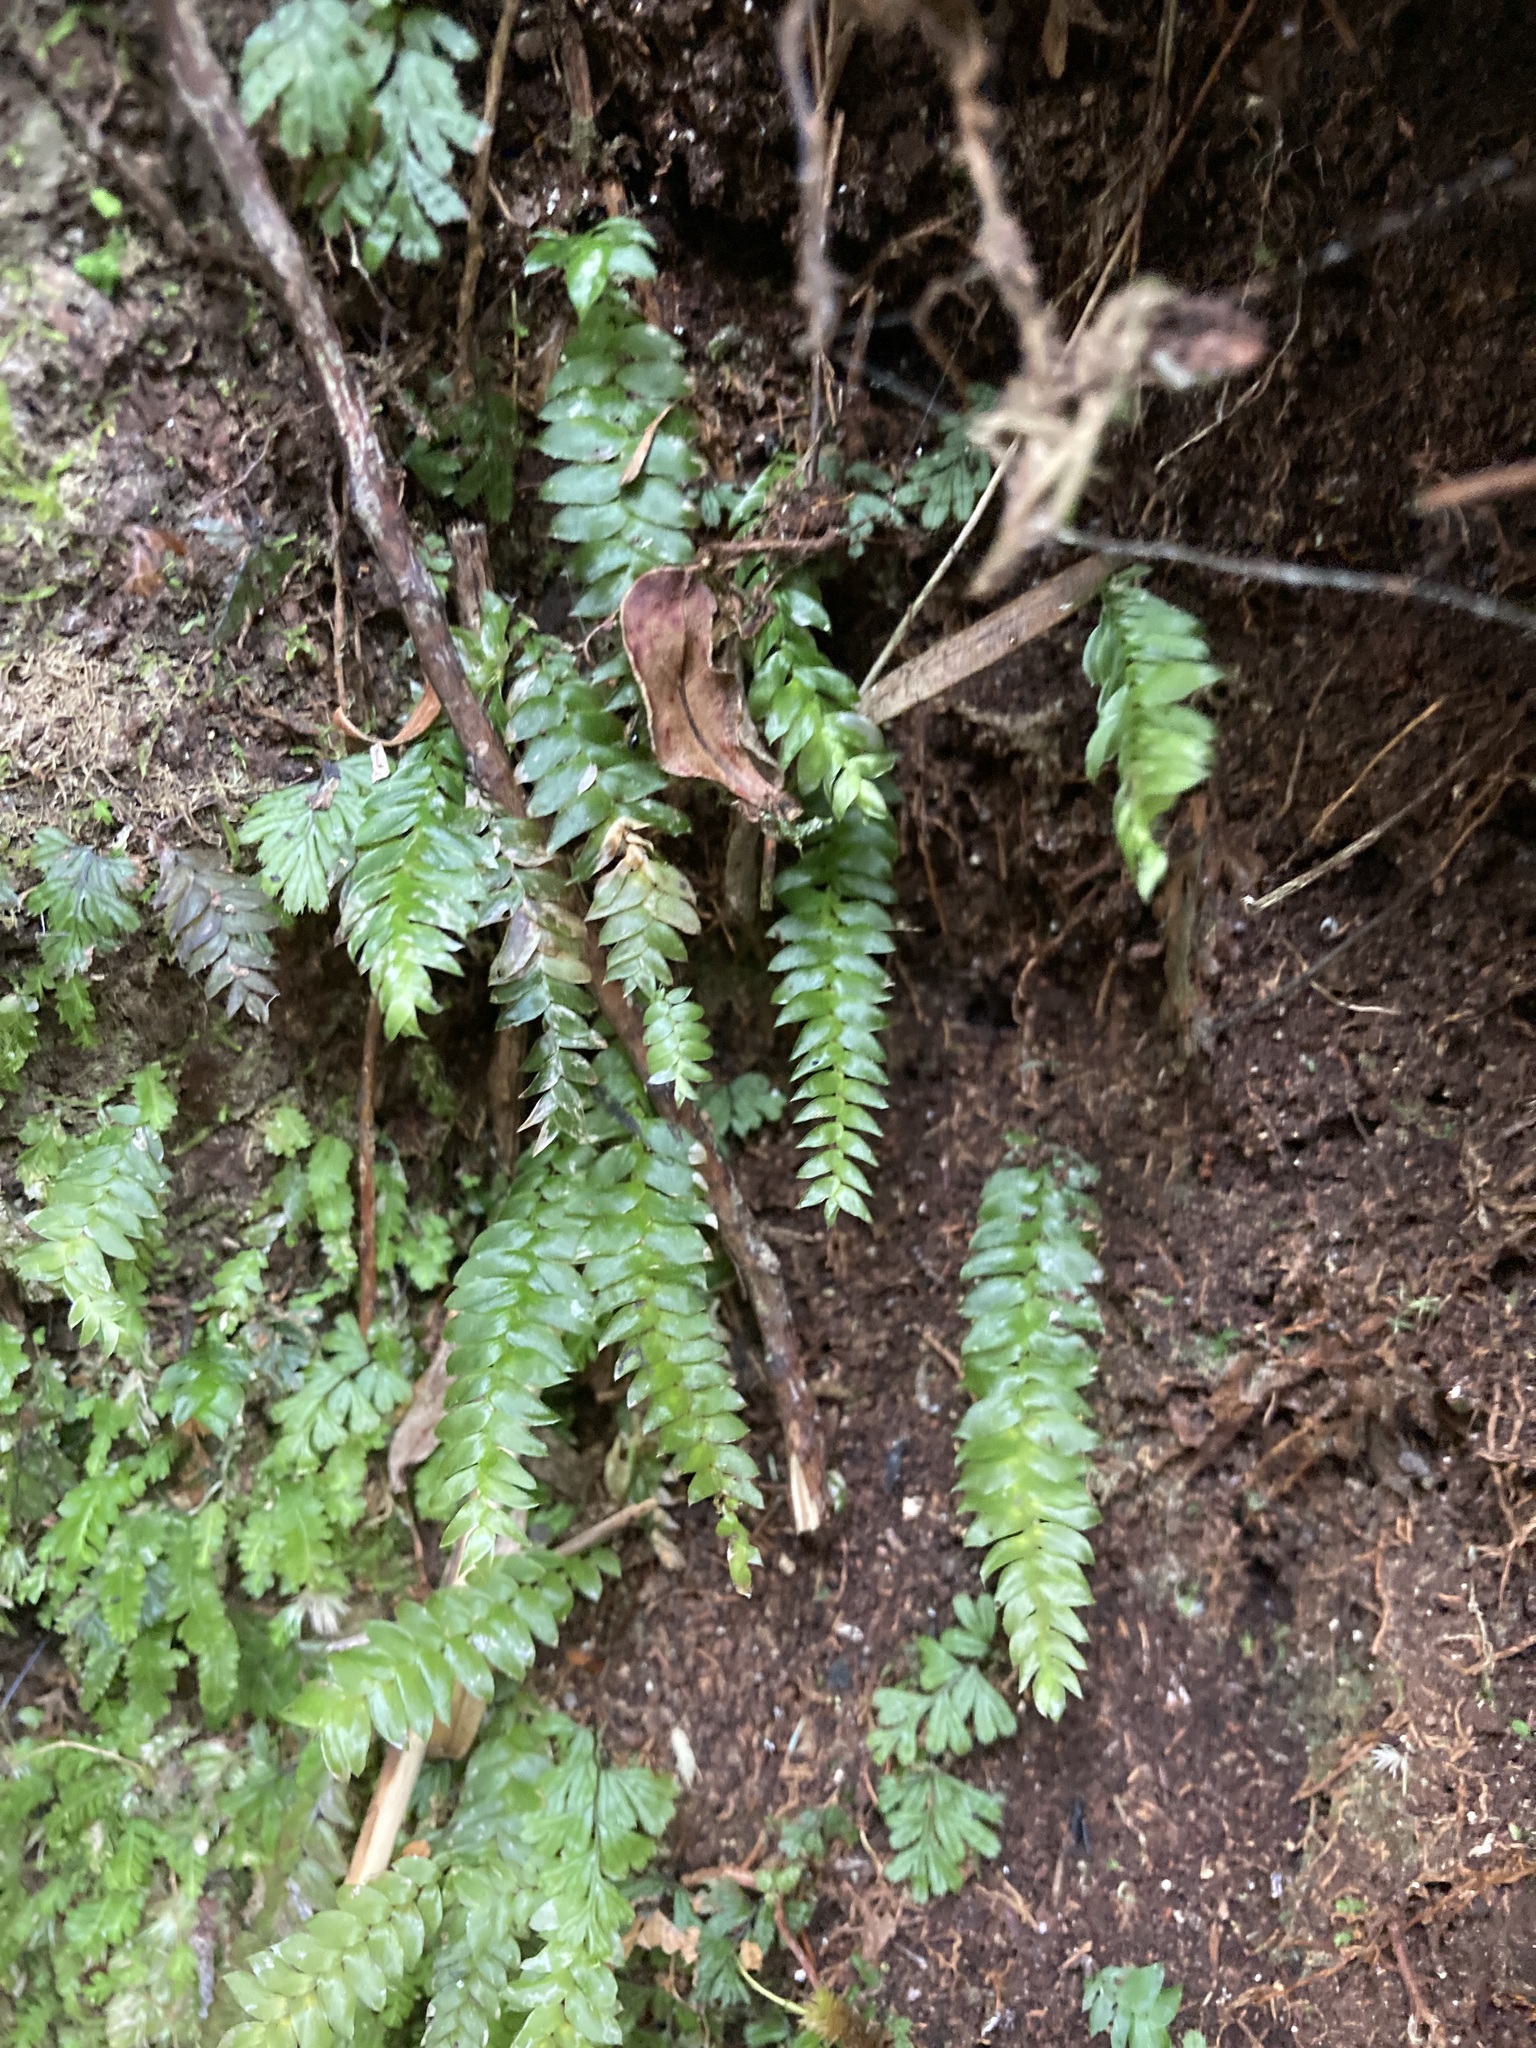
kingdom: Plantae
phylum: Bryophyta
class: Bryopsida
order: Hypopterygiales
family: Hypopterygiaceae
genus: Cyathophorum
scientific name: Cyathophorum bulbosum
